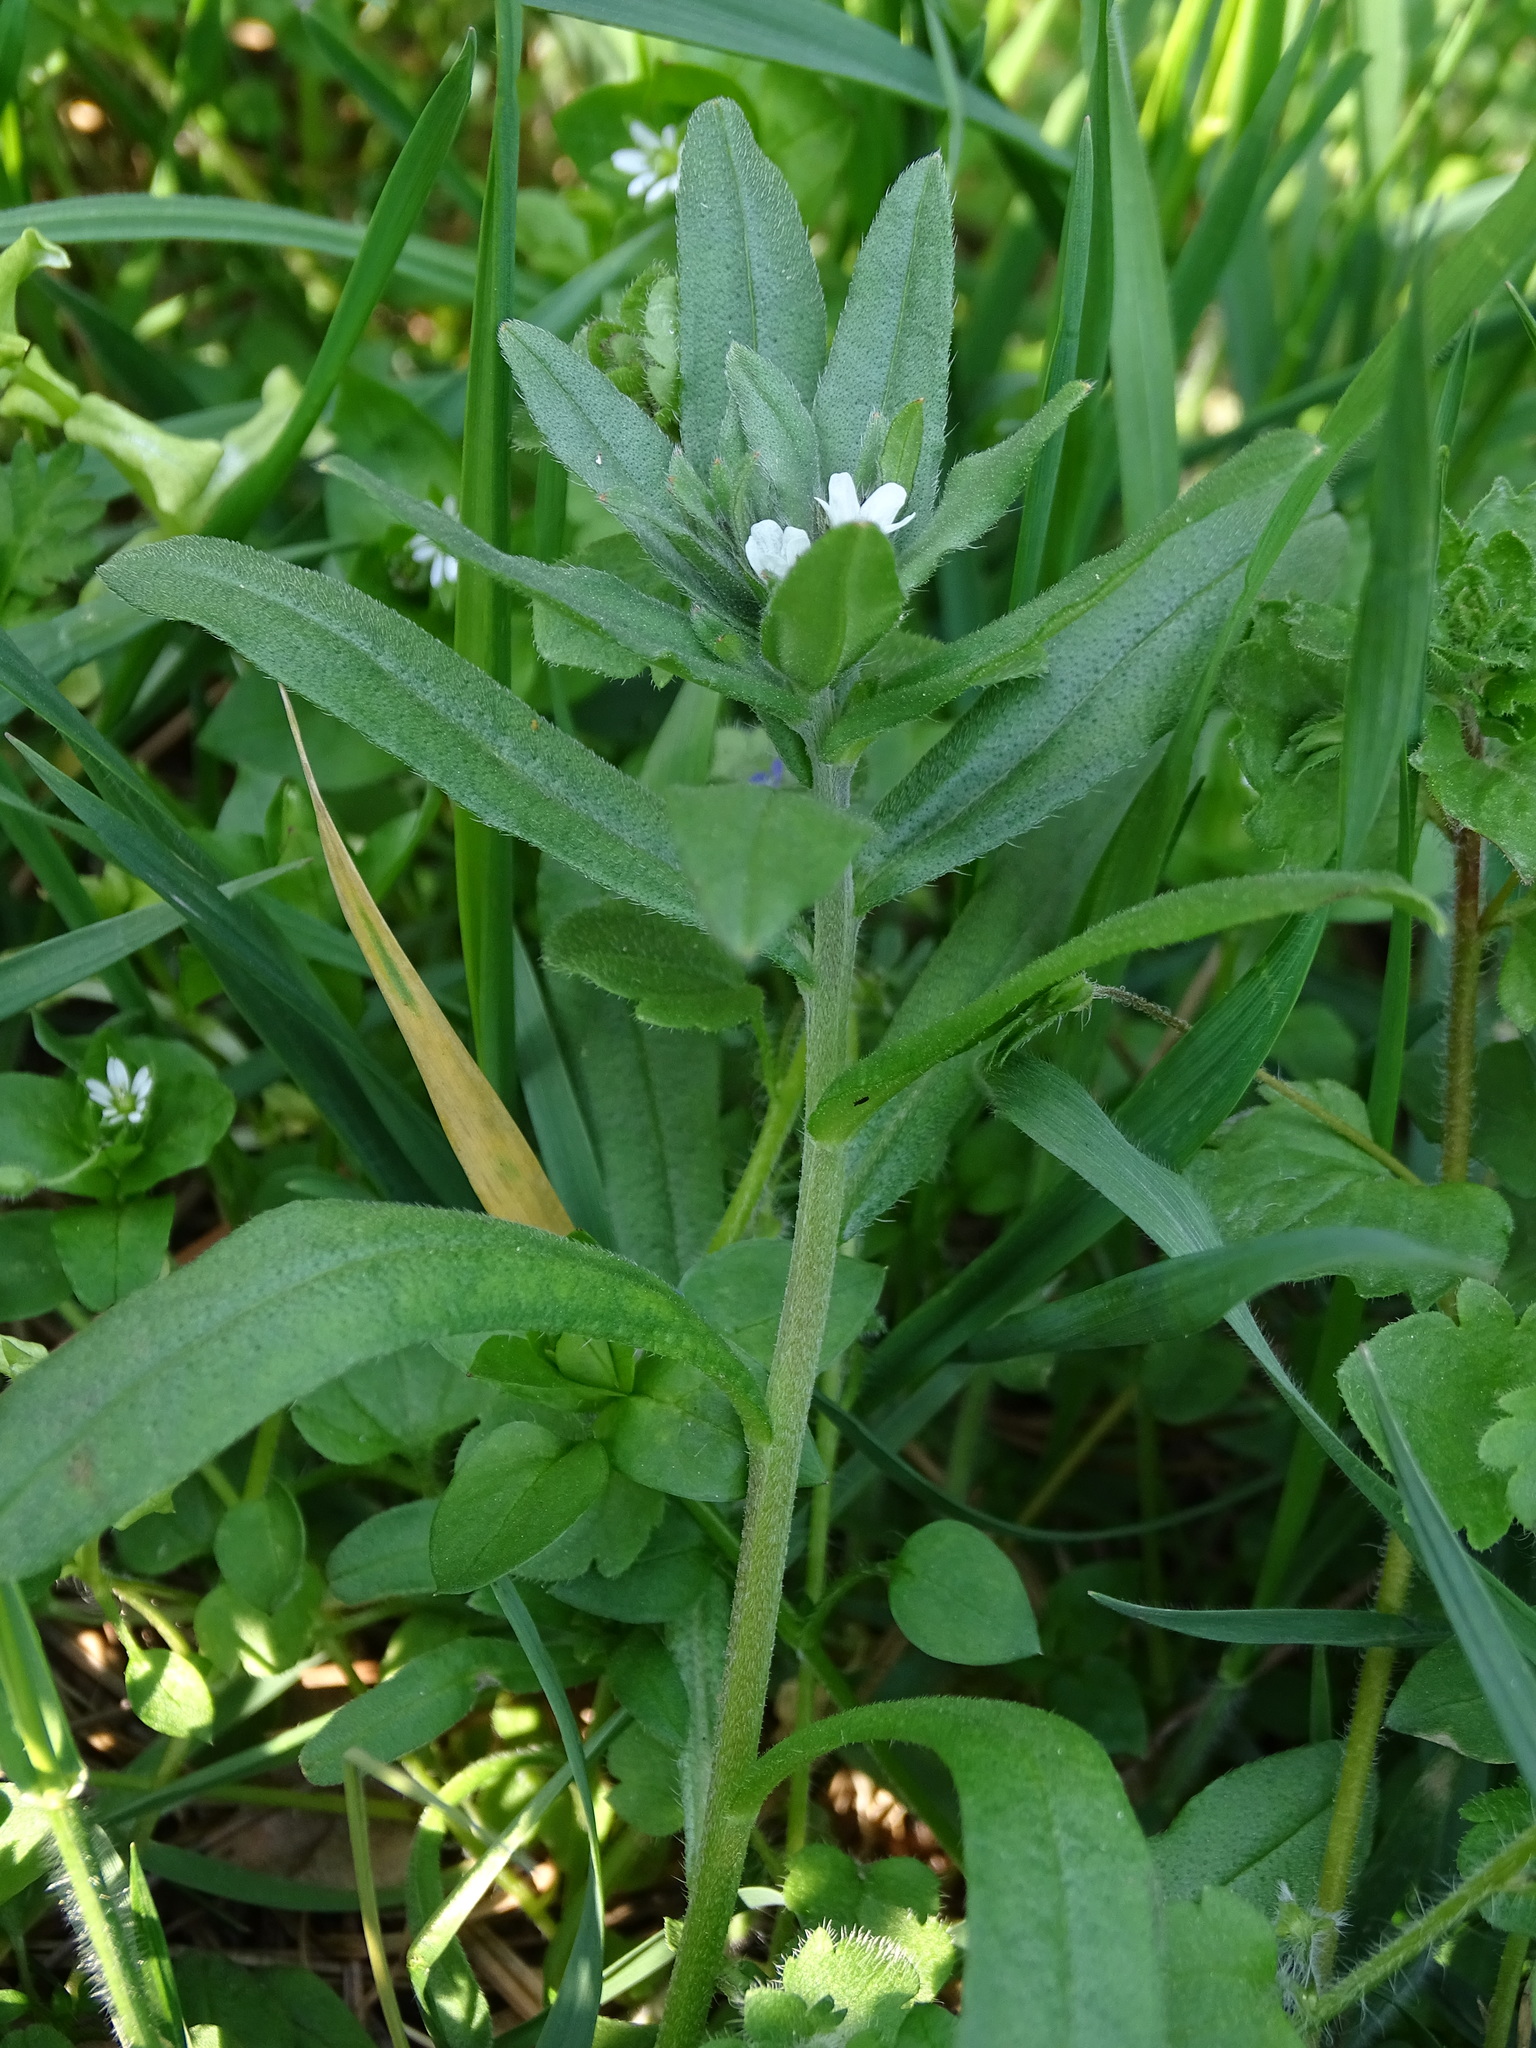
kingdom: Plantae
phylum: Tracheophyta
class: Magnoliopsida
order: Boraginales
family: Boraginaceae
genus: Buglossoides
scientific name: Buglossoides arvensis
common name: Corn gromwell
